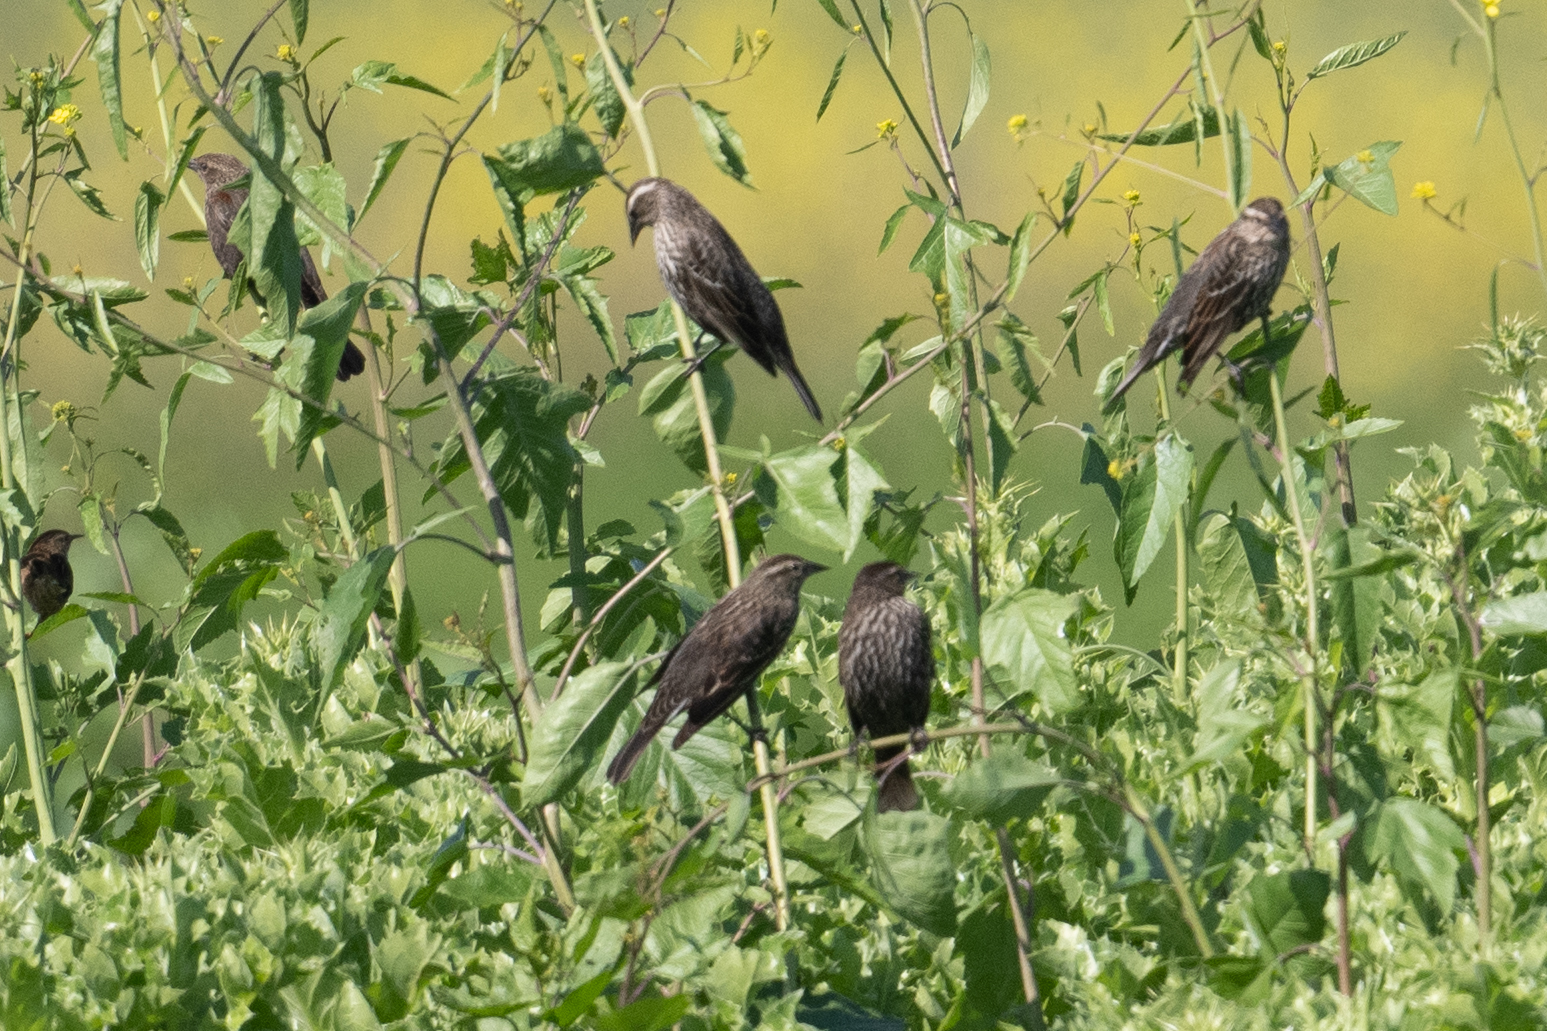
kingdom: Animalia
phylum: Chordata
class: Aves
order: Passeriformes
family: Icteridae
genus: Agelaius
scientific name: Agelaius phoeniceus
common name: Red-winged blackbird
